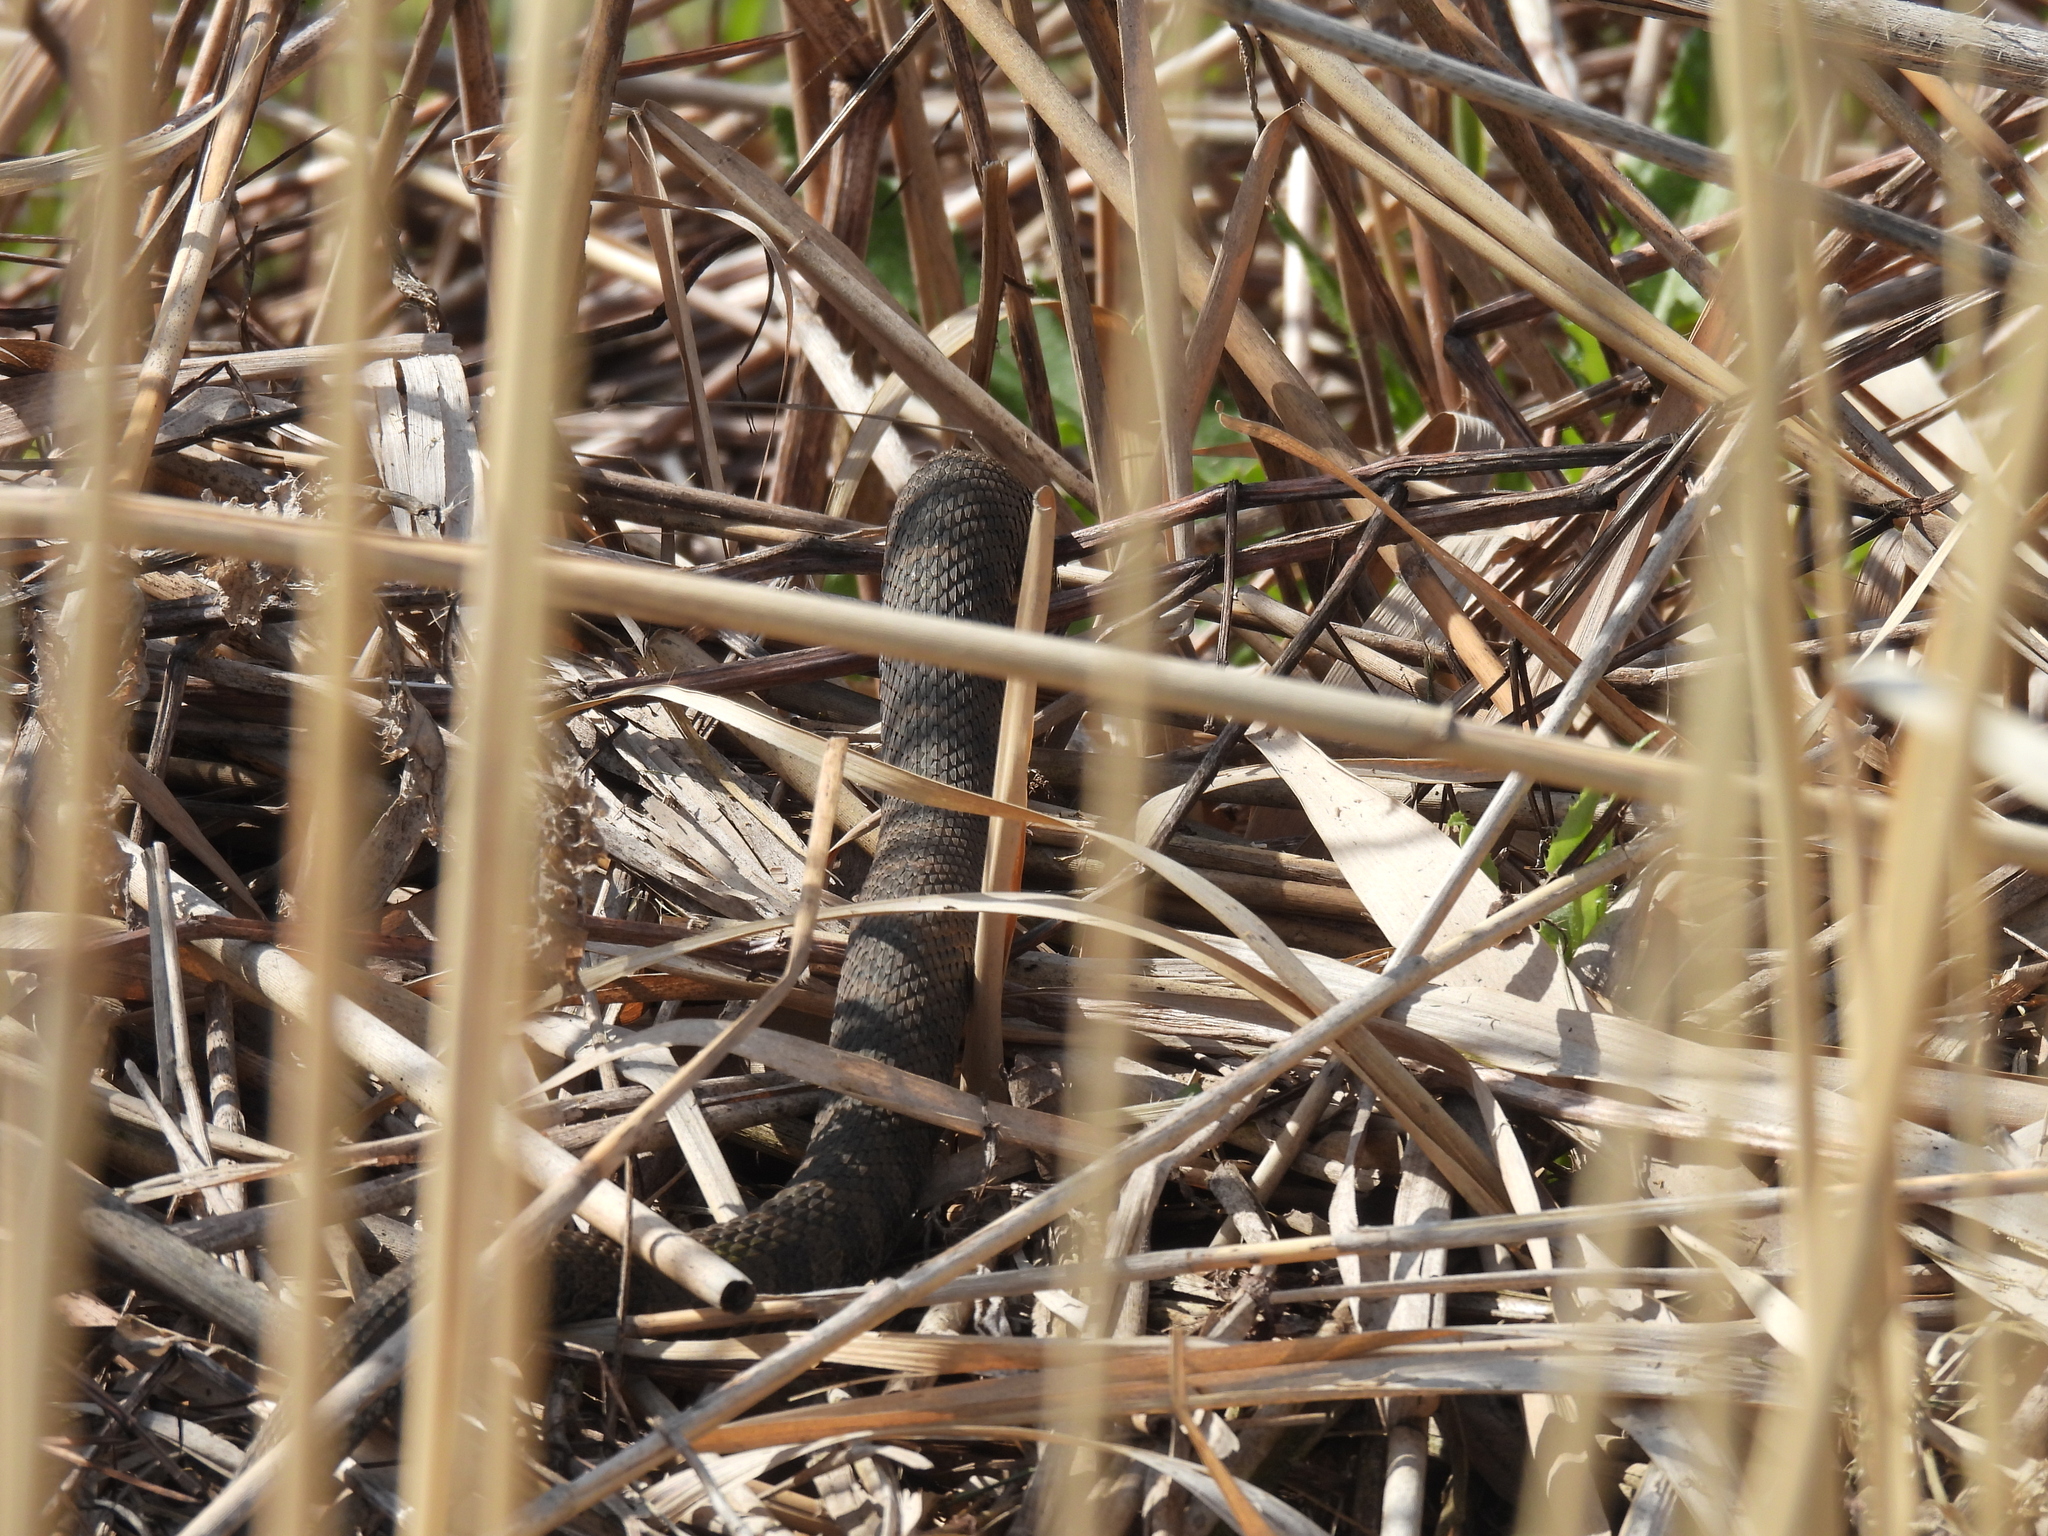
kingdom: Animalia
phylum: Chordata
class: Squamata
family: Colubridae
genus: Nerodia
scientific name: Nerodia sipedon
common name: Northern water snake
